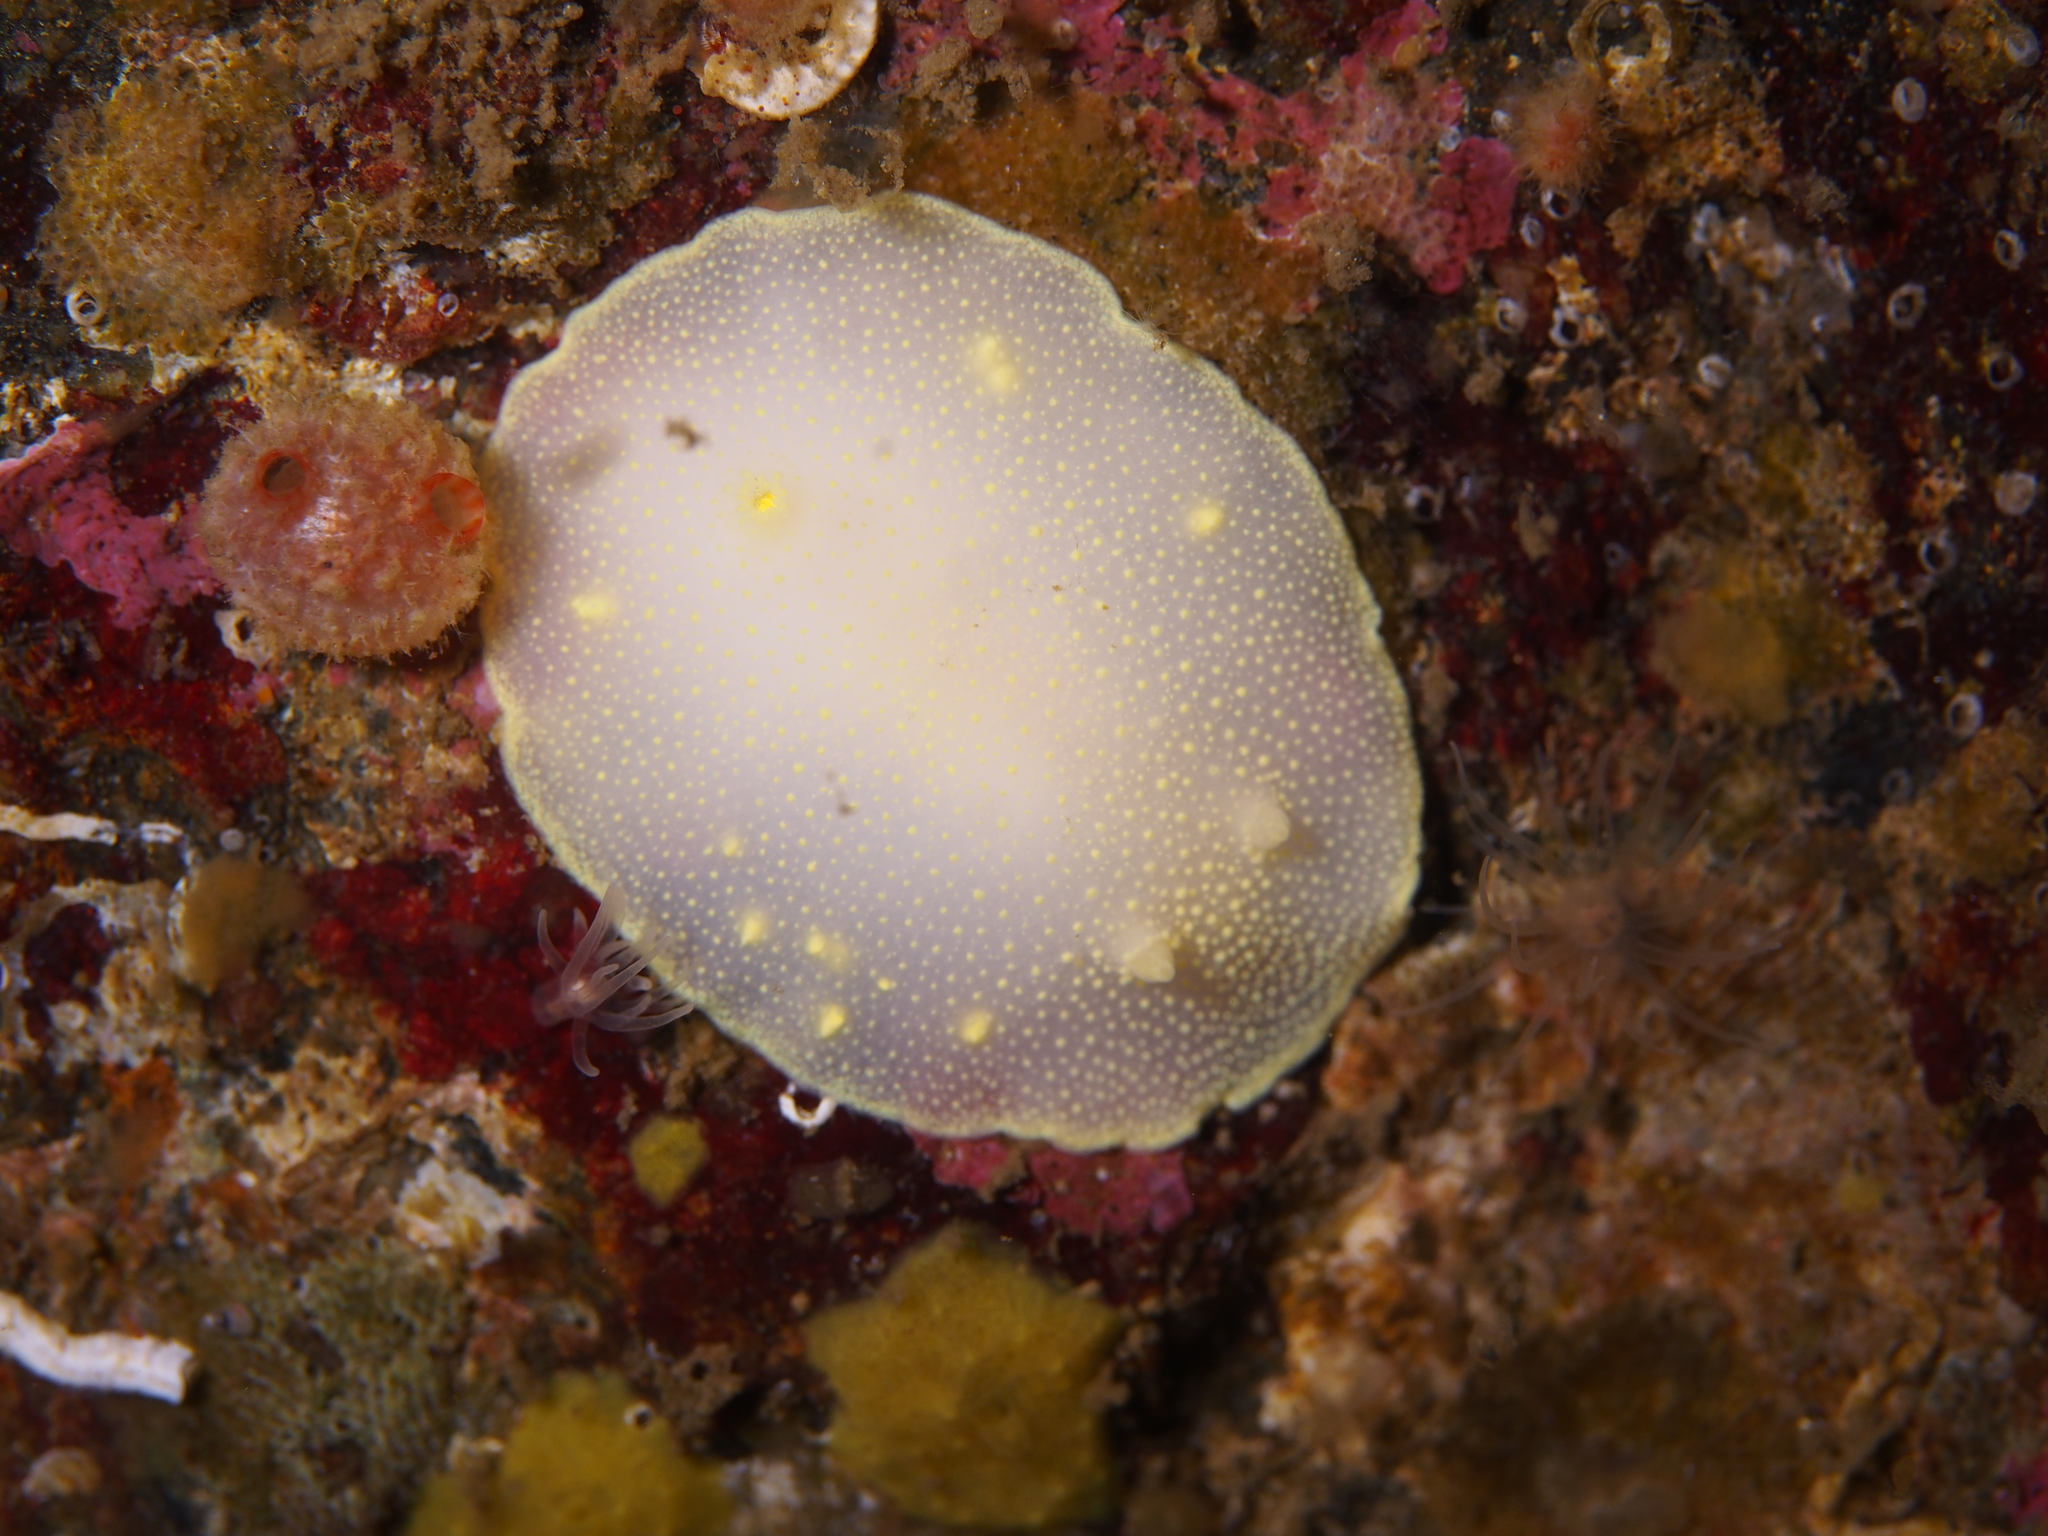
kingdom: Animalia
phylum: Mollusca
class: Gastropoda
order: Nudibranchia
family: Cadlinidae
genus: Cadlina
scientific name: Cadlina laevis
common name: White atlantic cadlina
